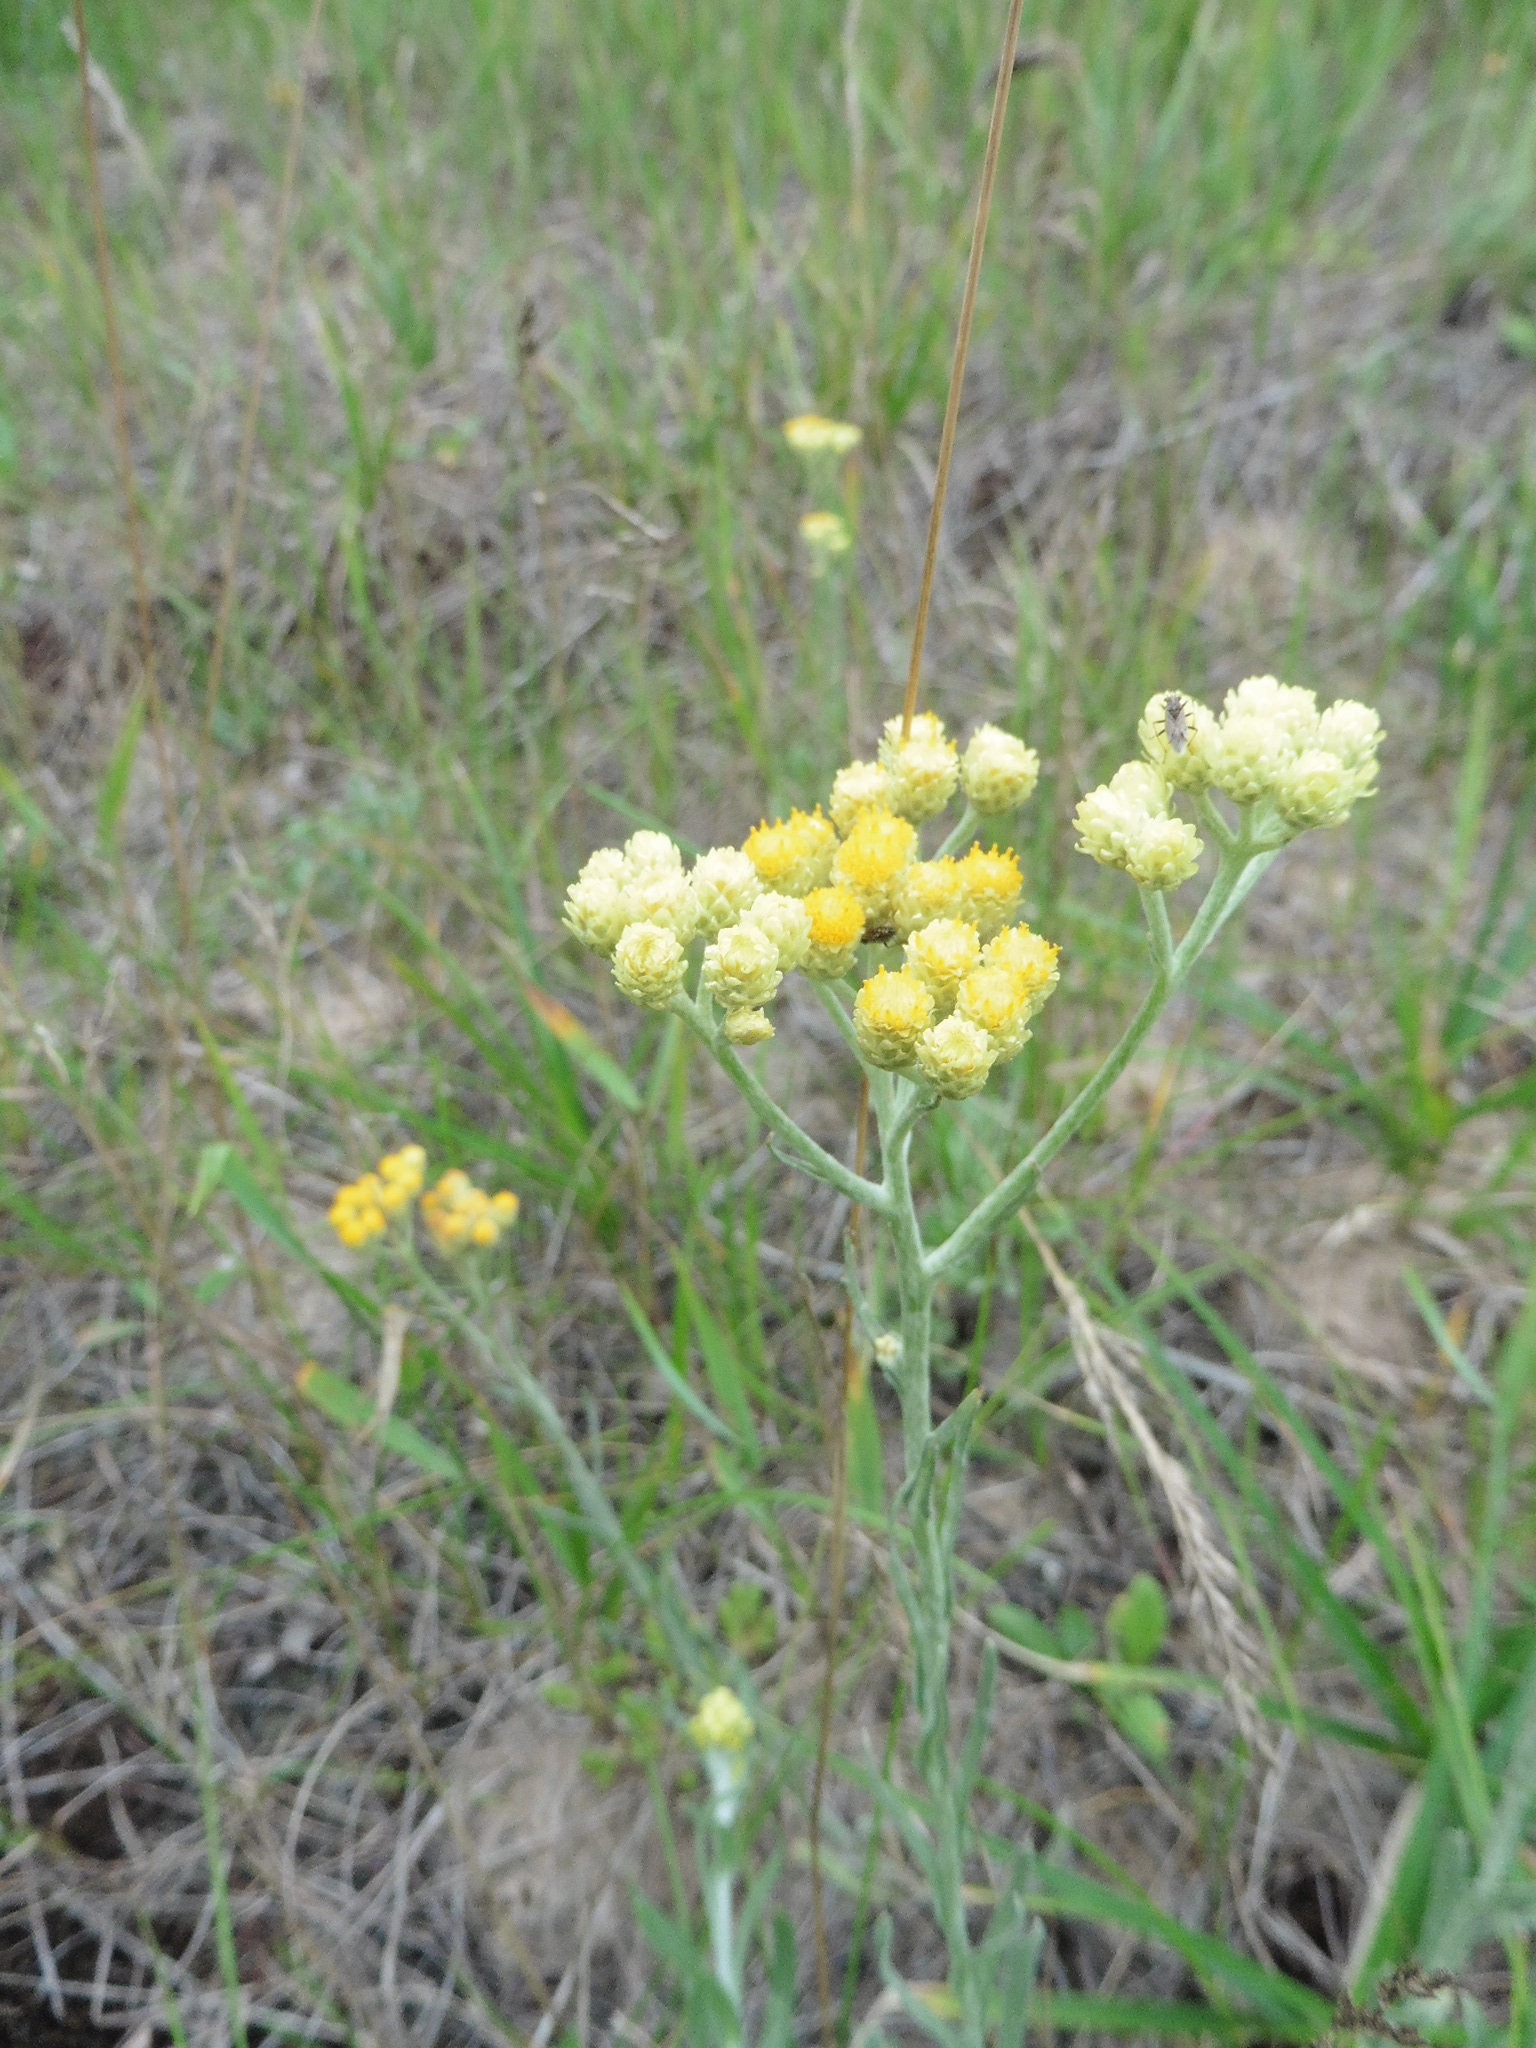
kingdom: Plantae
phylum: Tracheophyta
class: Magnoliopsida
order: Asterales
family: Asteraceae
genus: Helichrysum
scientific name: Helichrysum arenarium
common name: Strawflower
